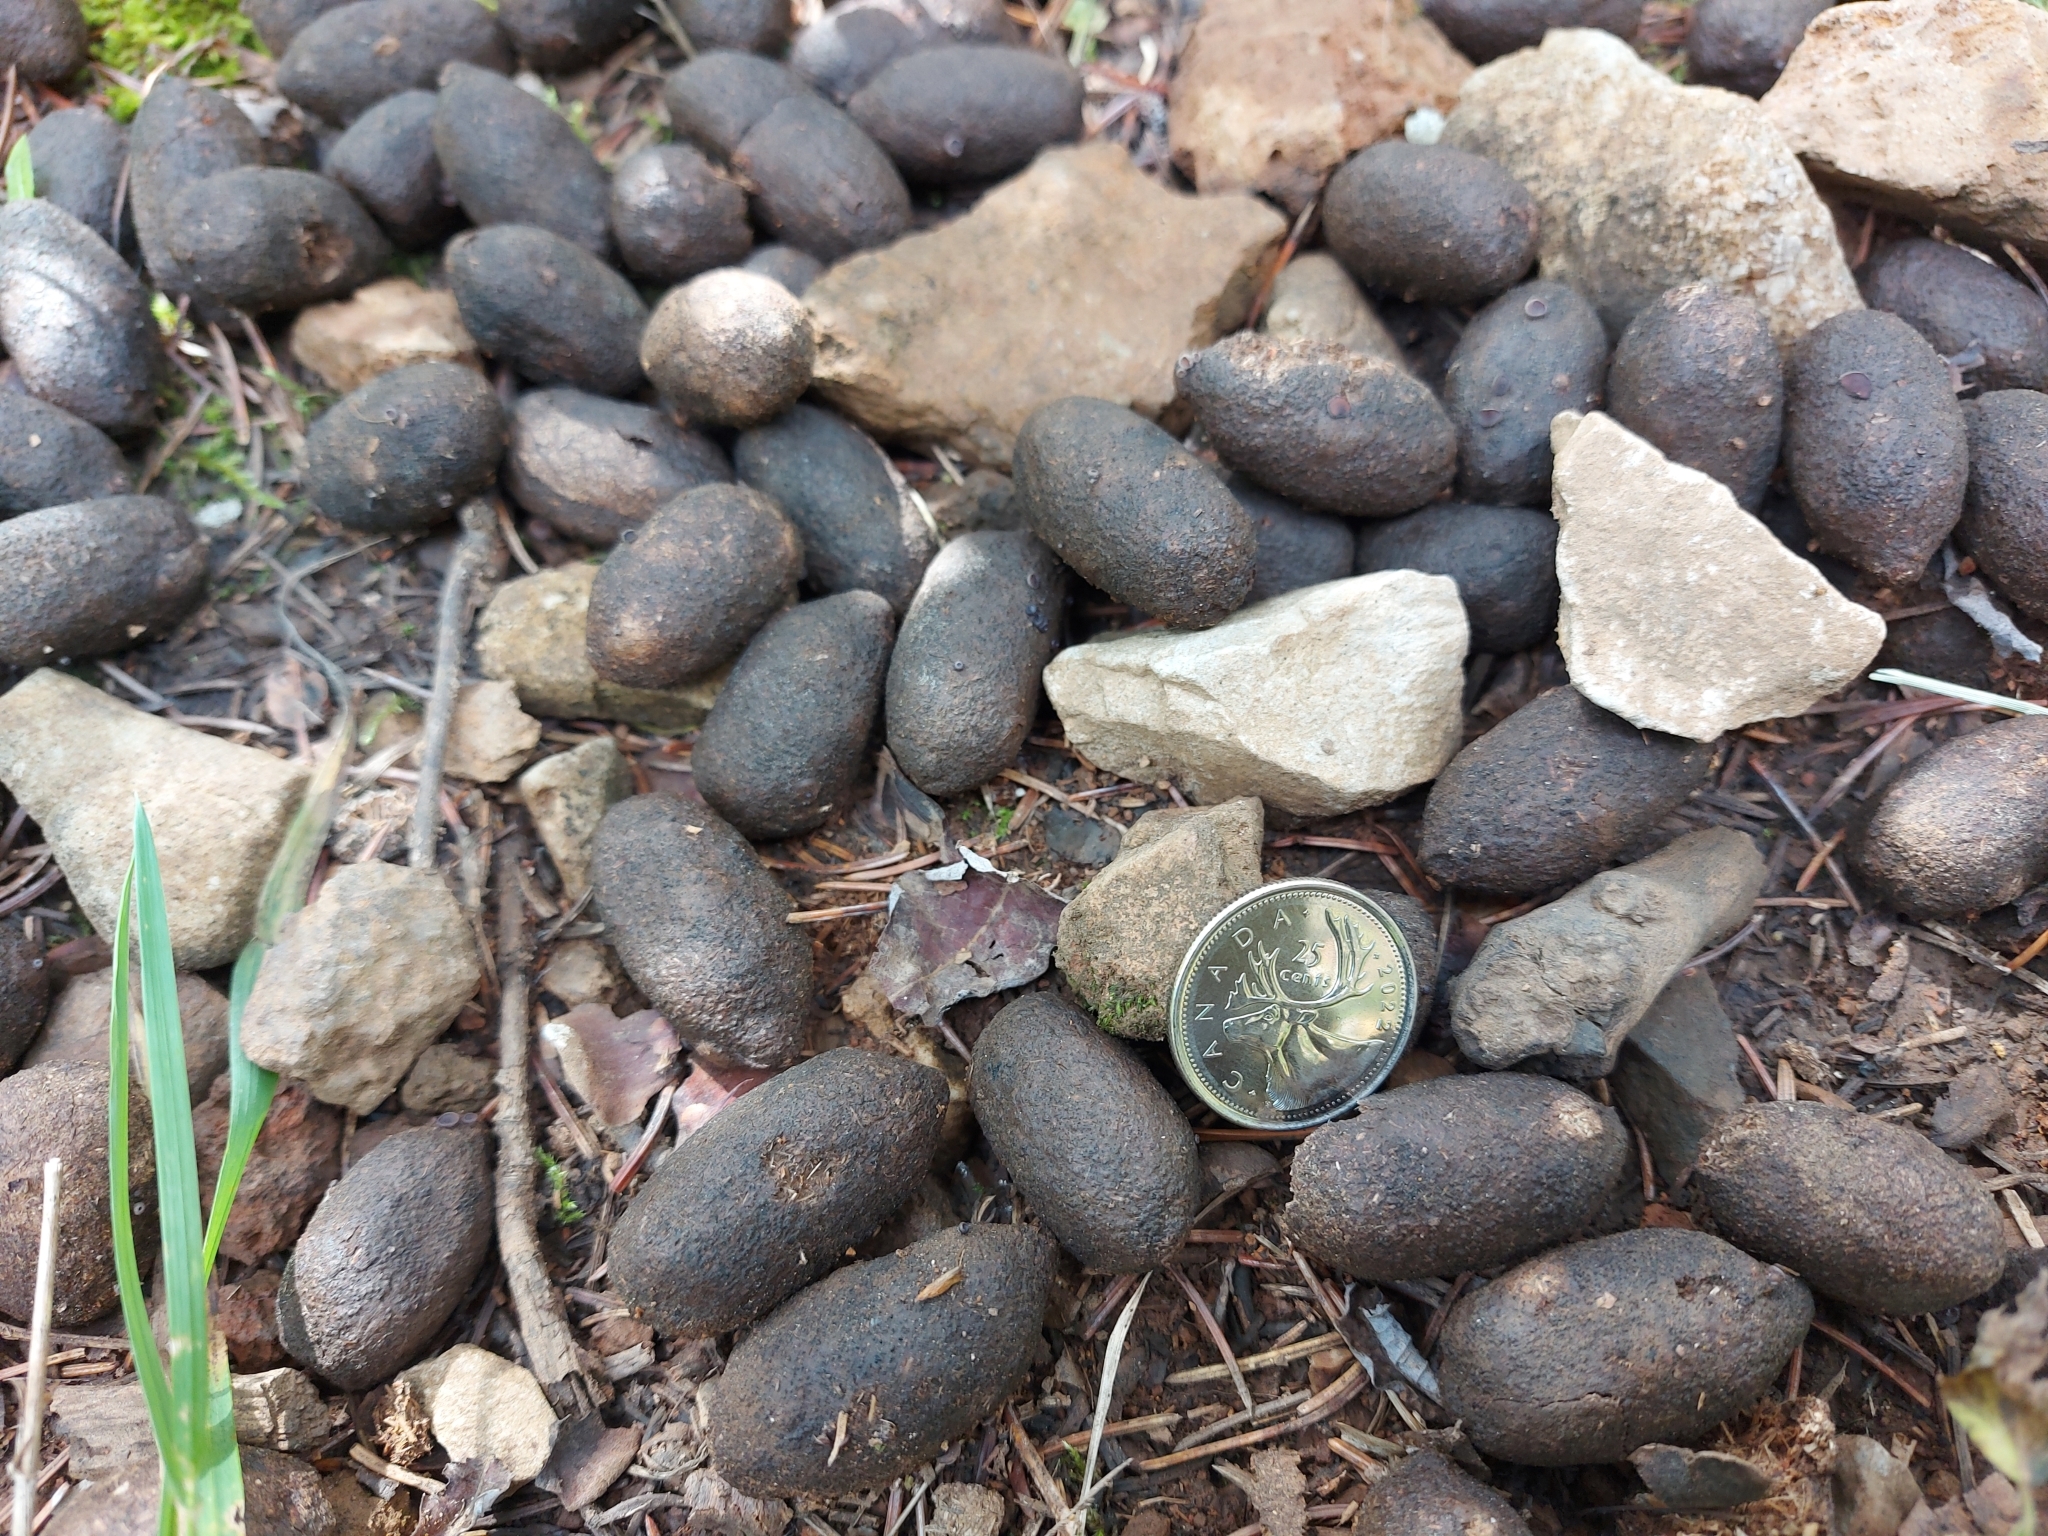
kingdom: Animalia
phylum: Chordata
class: Mammalia
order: Artiodactyla
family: Cervidae
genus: Alces
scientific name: Alces alces
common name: Moose
